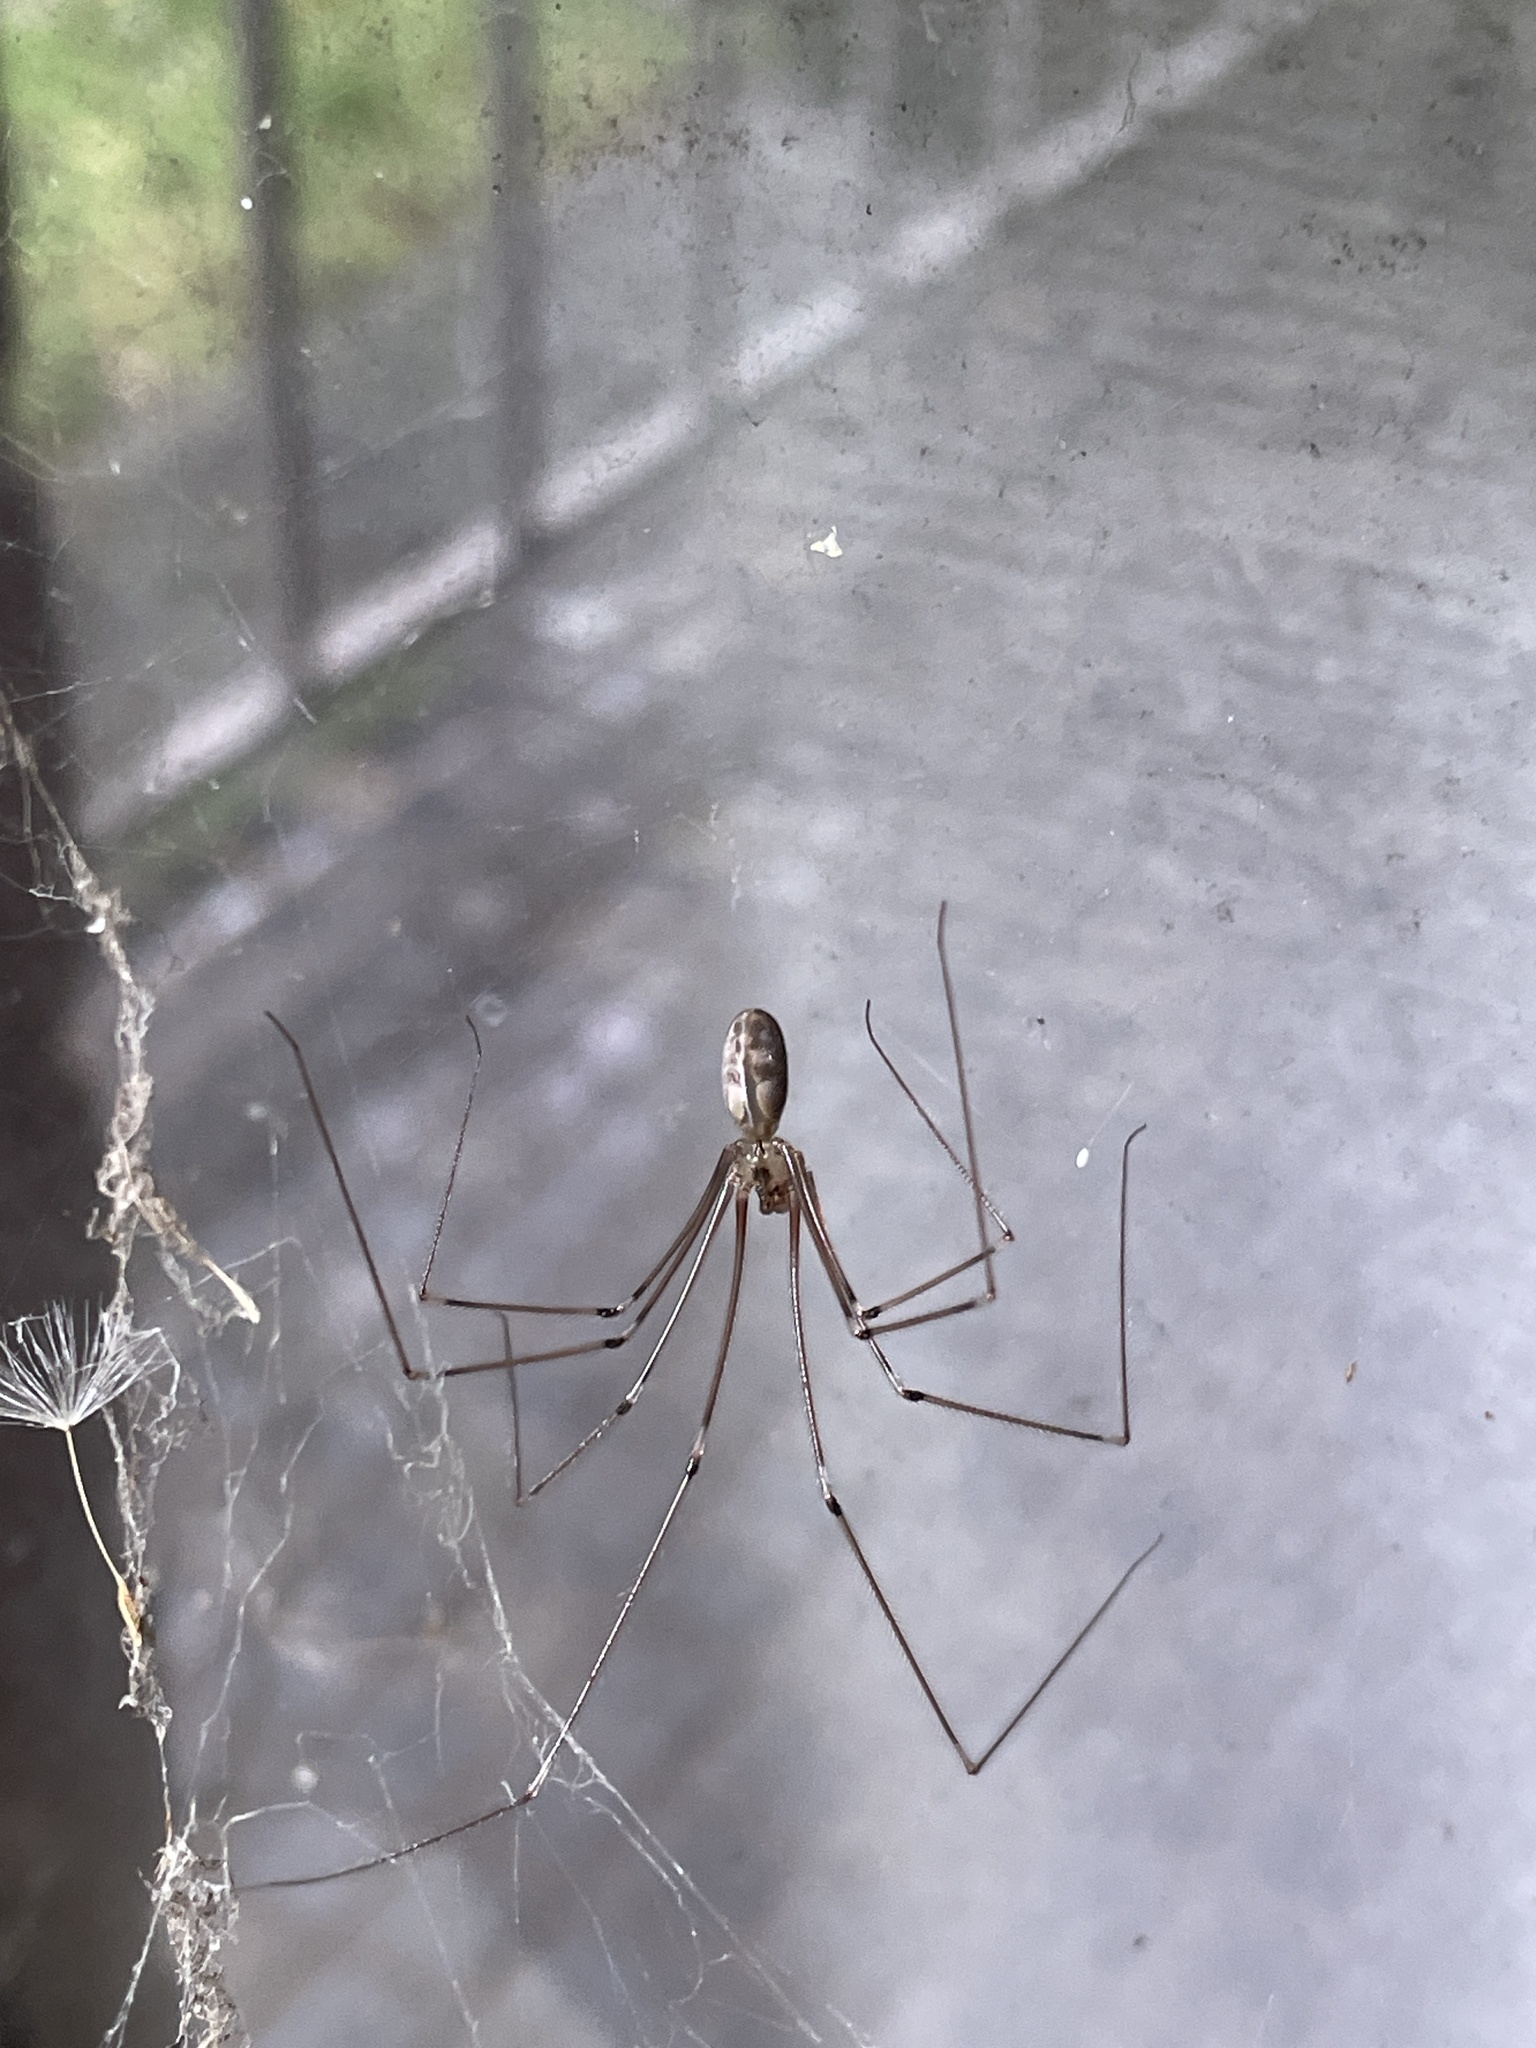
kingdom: Animalia
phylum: Arthropoda
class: Arachnida
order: Araneae
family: Pholcidae
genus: Pholcus
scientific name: Pholcus phalangioides
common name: Longbodied cellar spider
